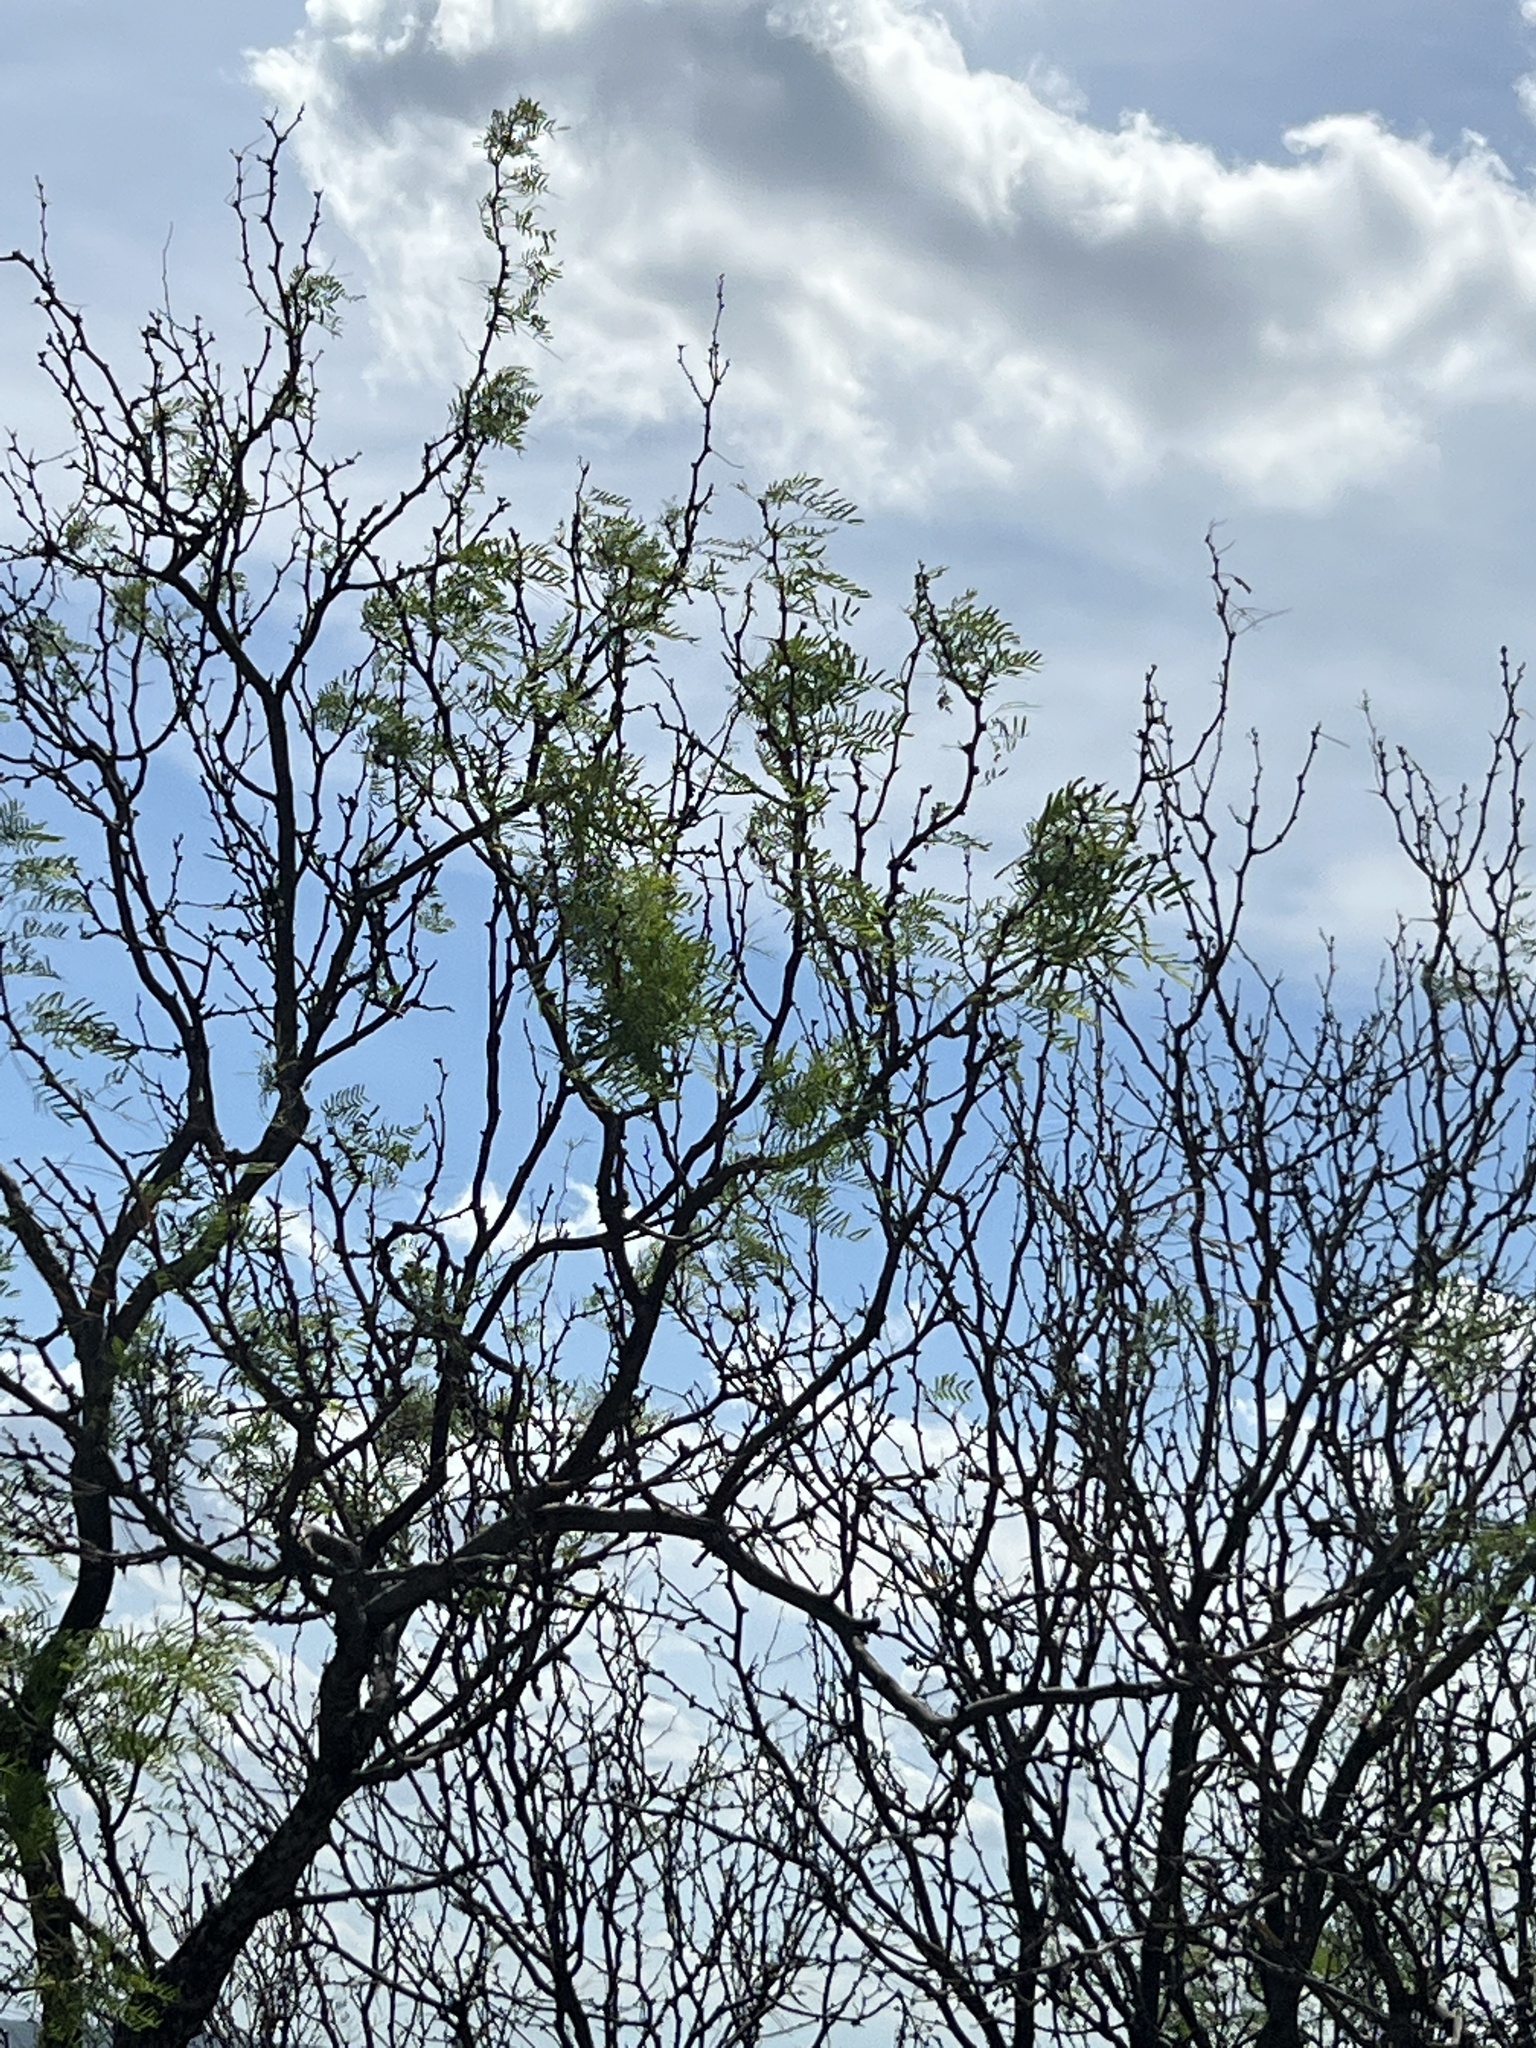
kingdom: Plantae
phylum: Tracheophyta
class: Magnoliopsida
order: Fabales
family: Fabaceae
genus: Prosopis
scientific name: Prosopis glandulosa
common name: Honey mesquite
